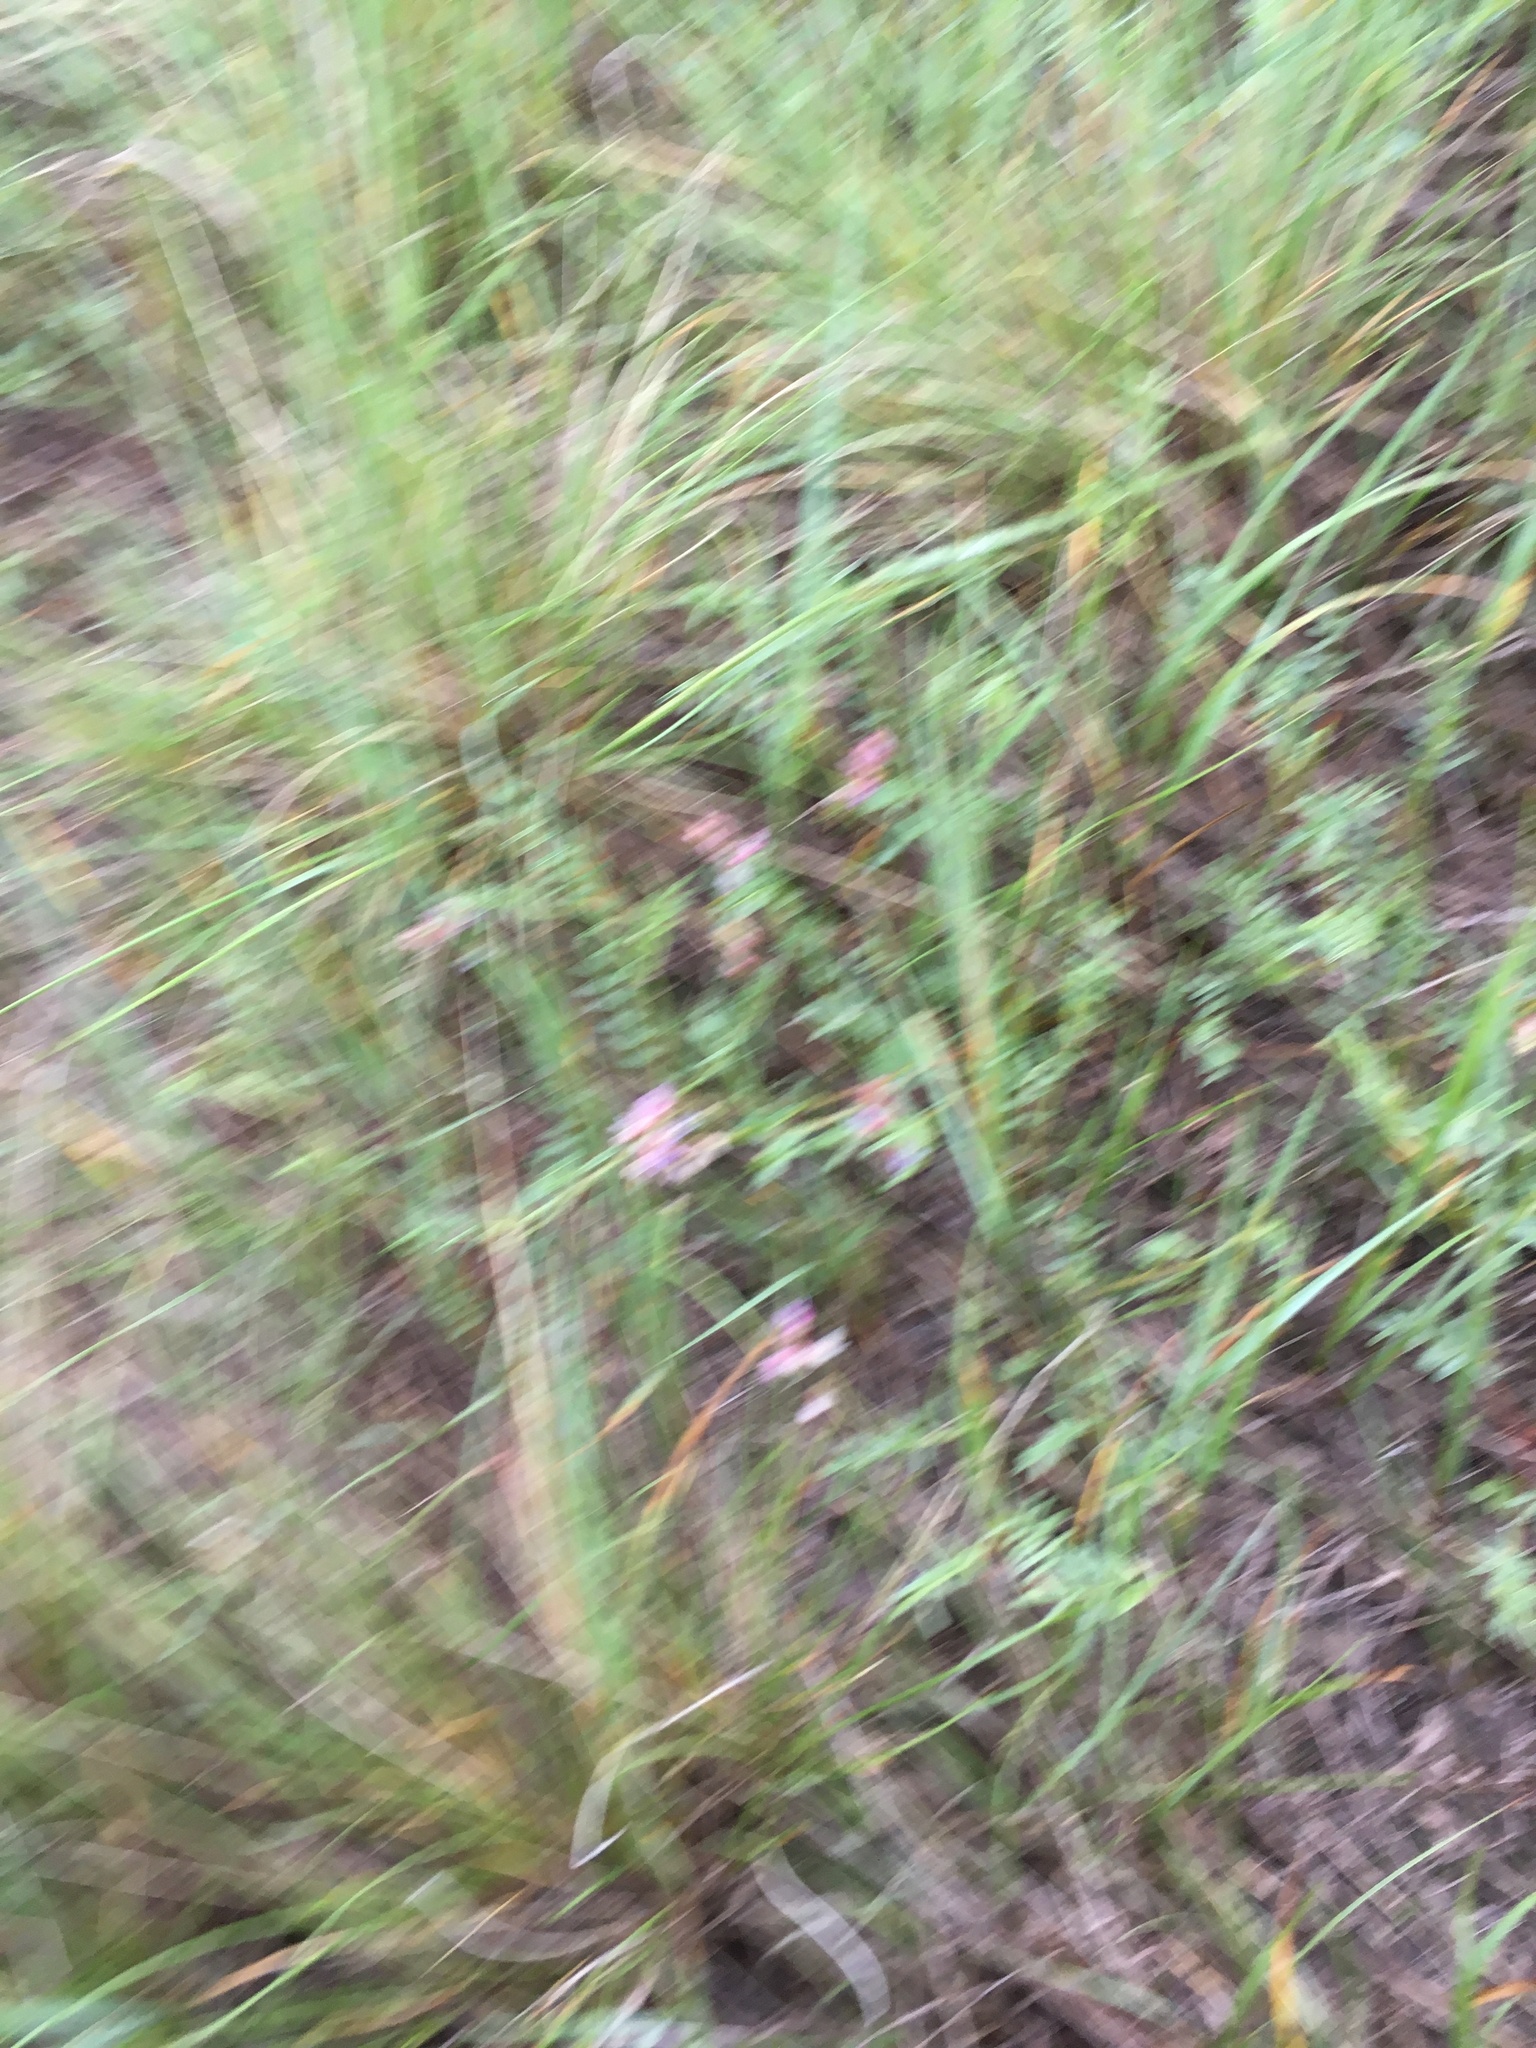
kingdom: Plantae
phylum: Tracheophyta
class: Magnoliopsida
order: Fabales
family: Fabaceae
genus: Astragalus
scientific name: Astragalus gracilis
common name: Slender milk-vetch
